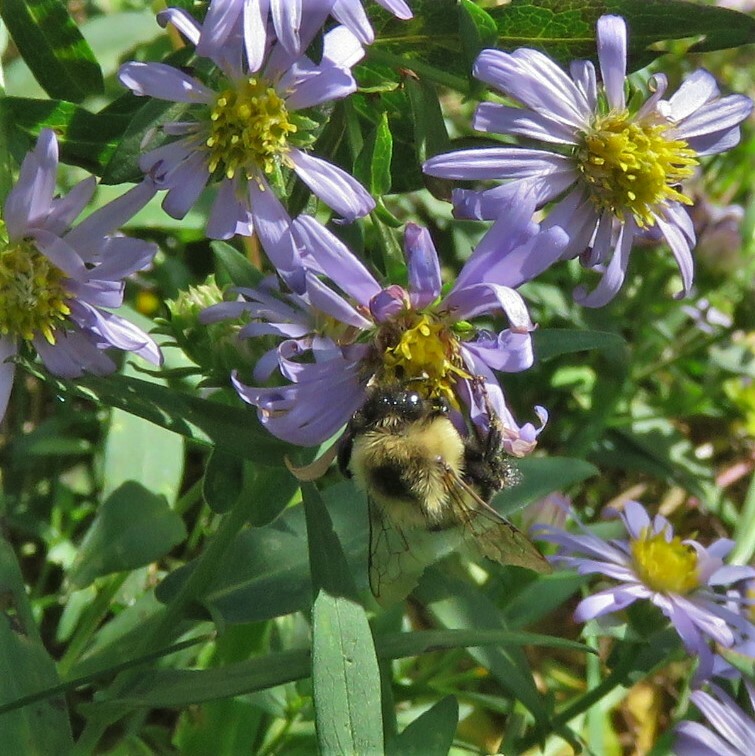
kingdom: Animalia
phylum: Arthropoda
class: Insecta
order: Hymenoptera
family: Apidae
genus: Bombus
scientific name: Bombus impatiens
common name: Common eastern bumble bee
